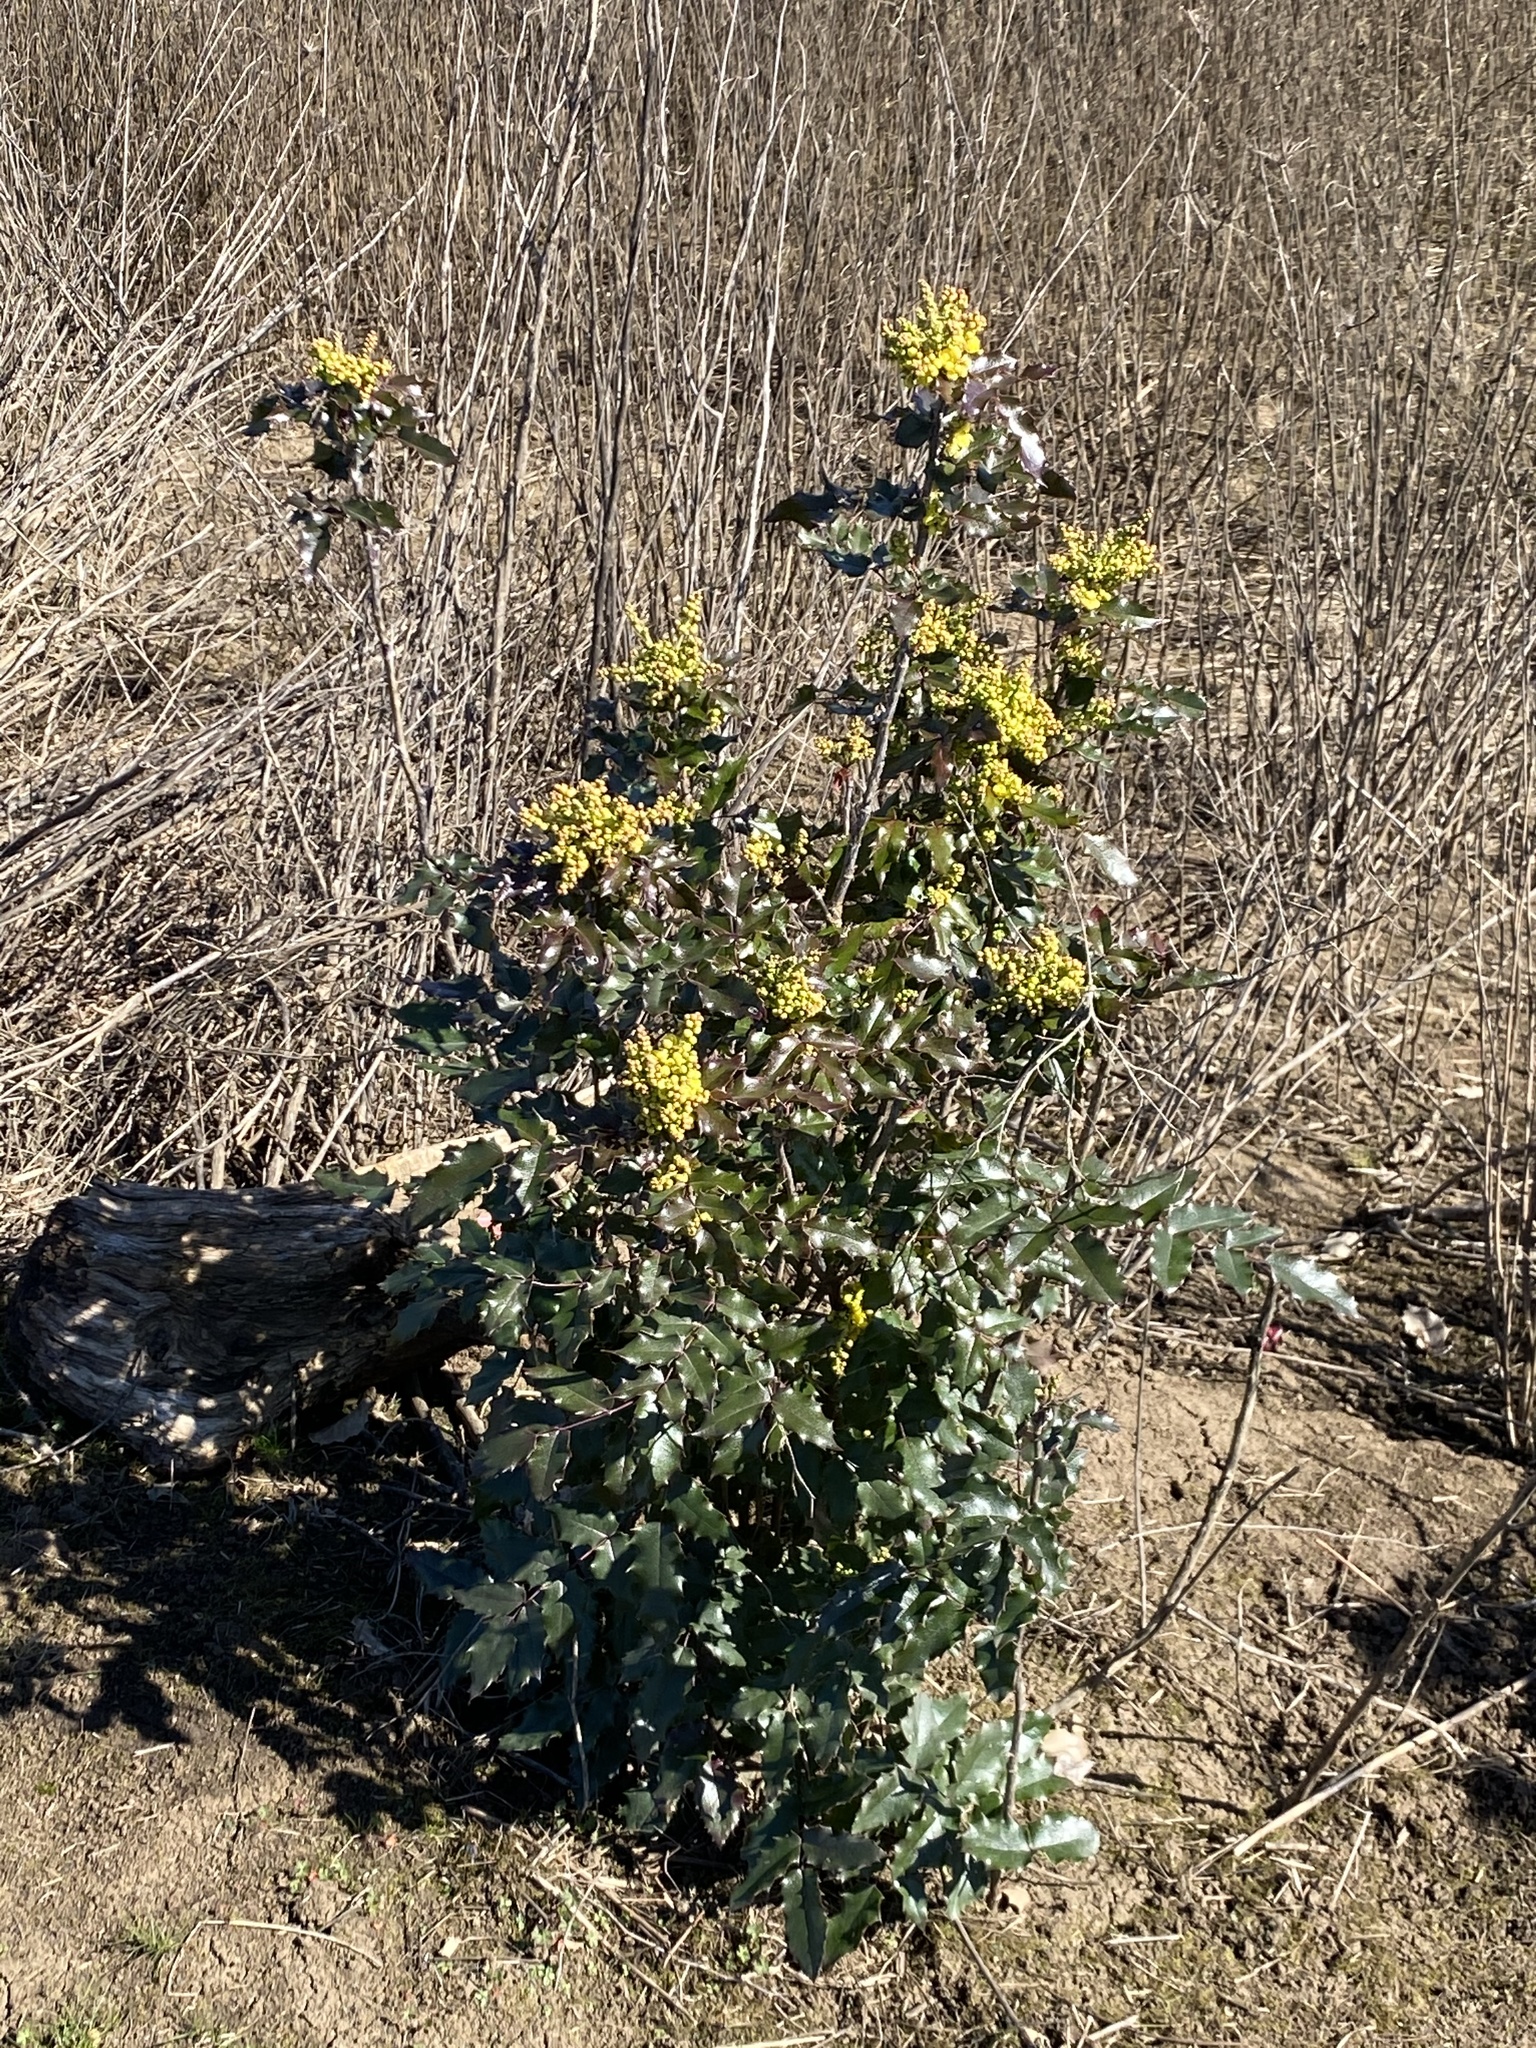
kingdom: Plantae
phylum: Tracheophyta
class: Magnoliopsida
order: Ranunculales
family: Berberidaceae
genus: Mahonia
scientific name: Mahonia aquifolium
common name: Oregon-grape
